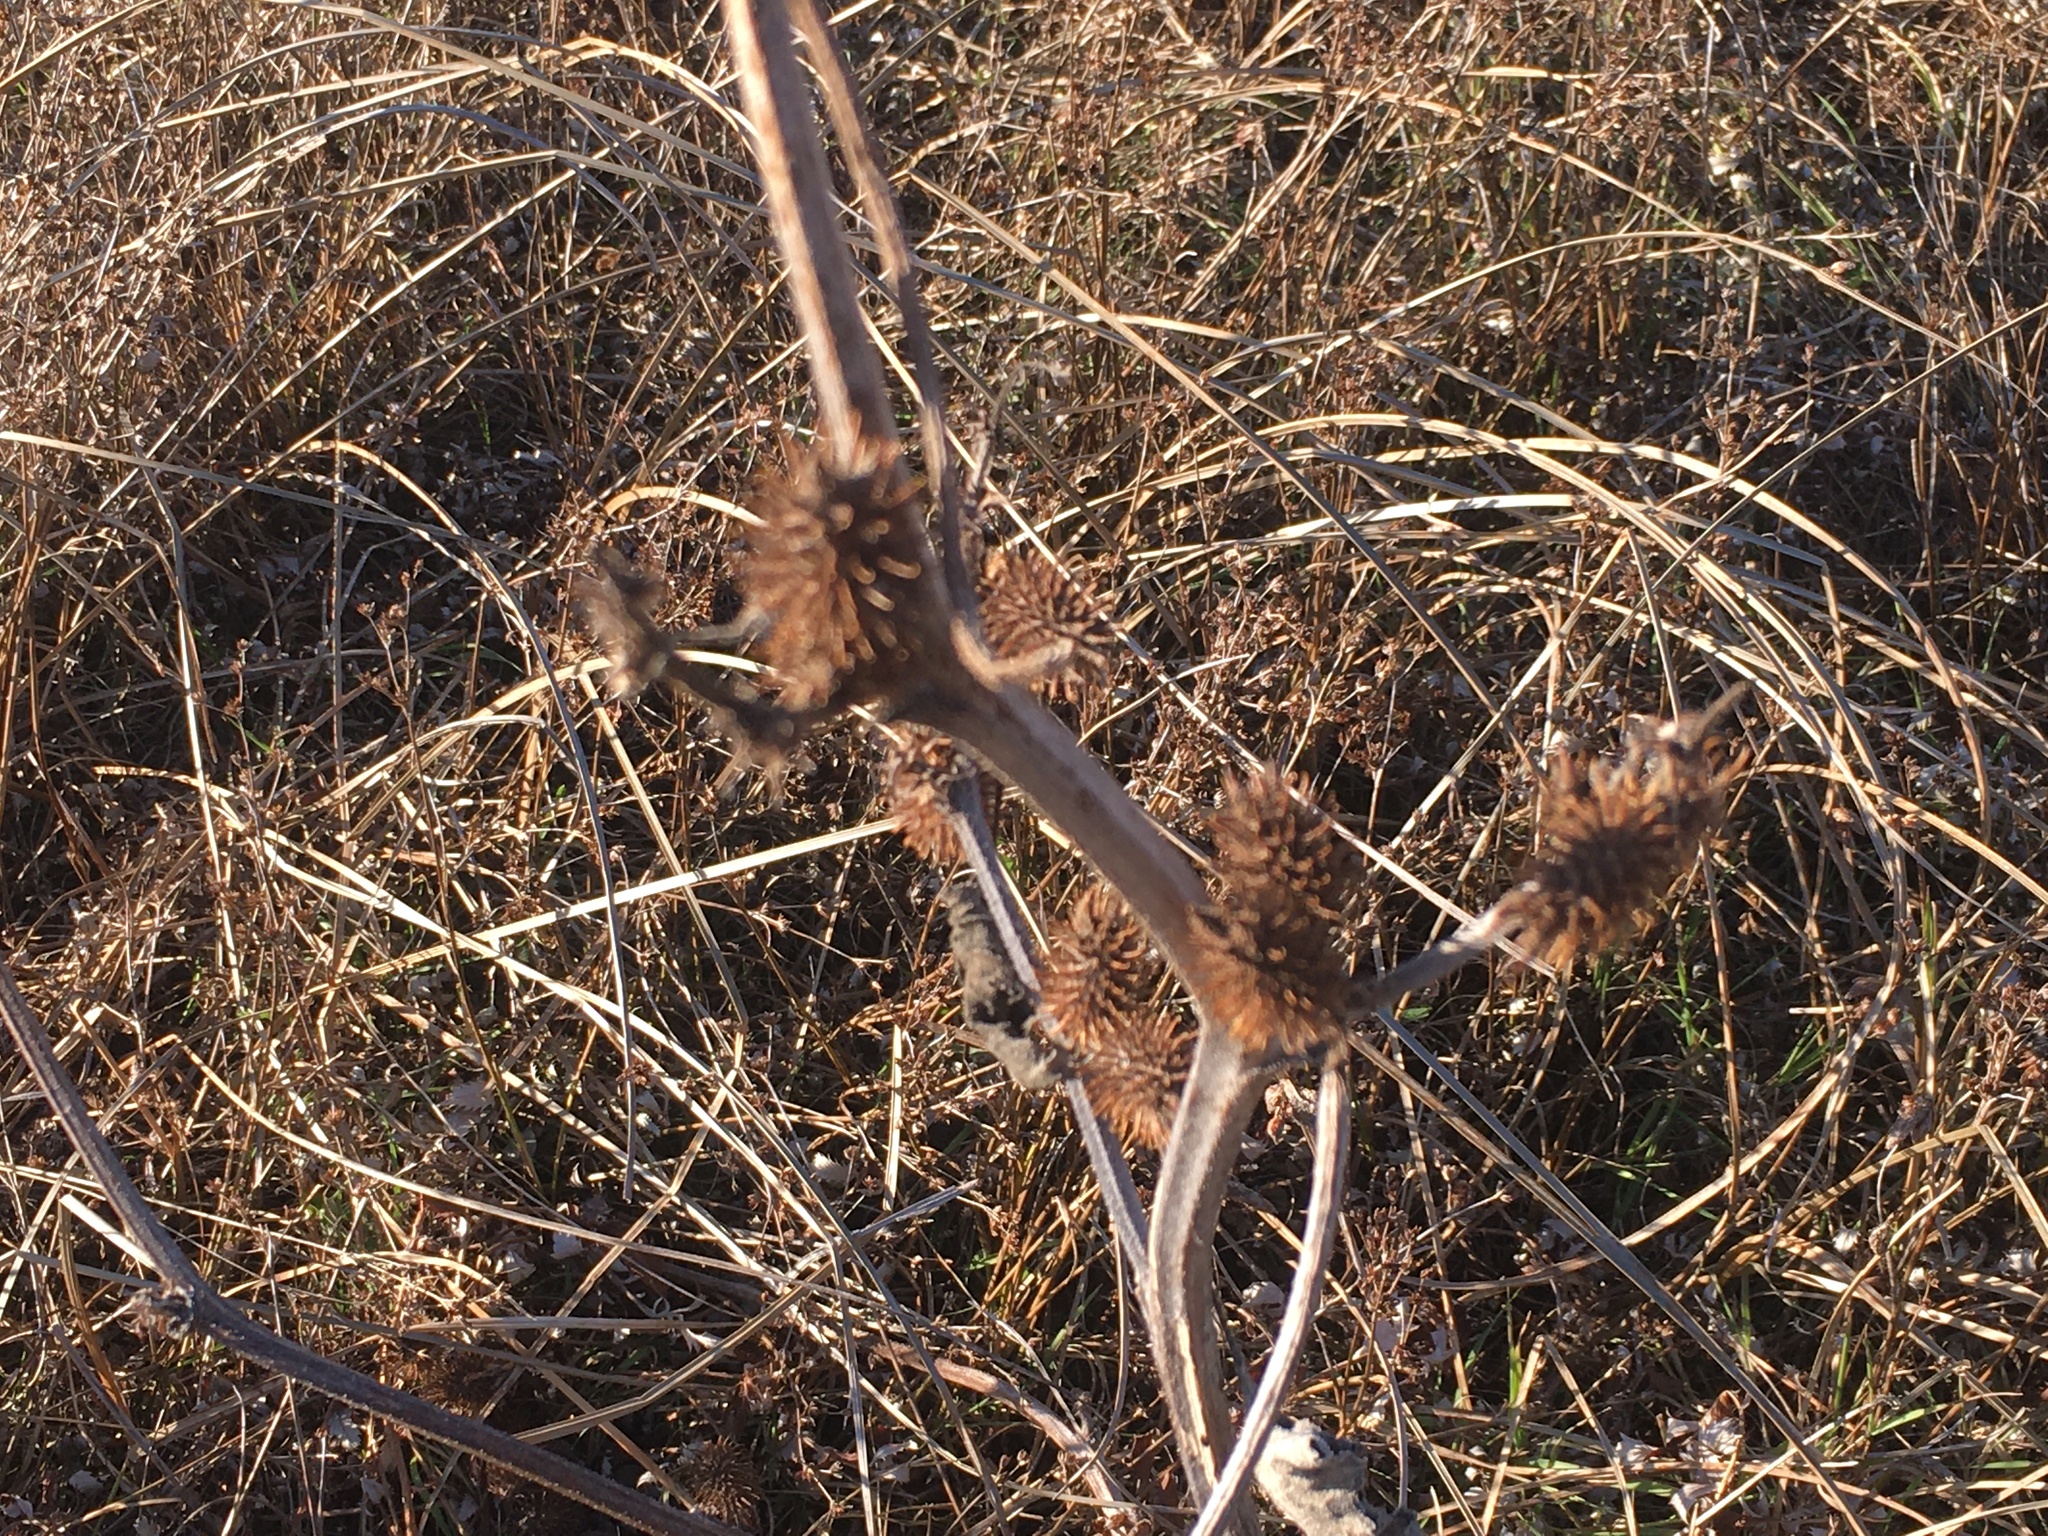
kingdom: Plantae
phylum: Tracheophyta
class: Magnoliopsida
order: Asterales
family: Asteraceae
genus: Xanthium
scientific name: Xanthium strumarium
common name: Rough cocklebur
